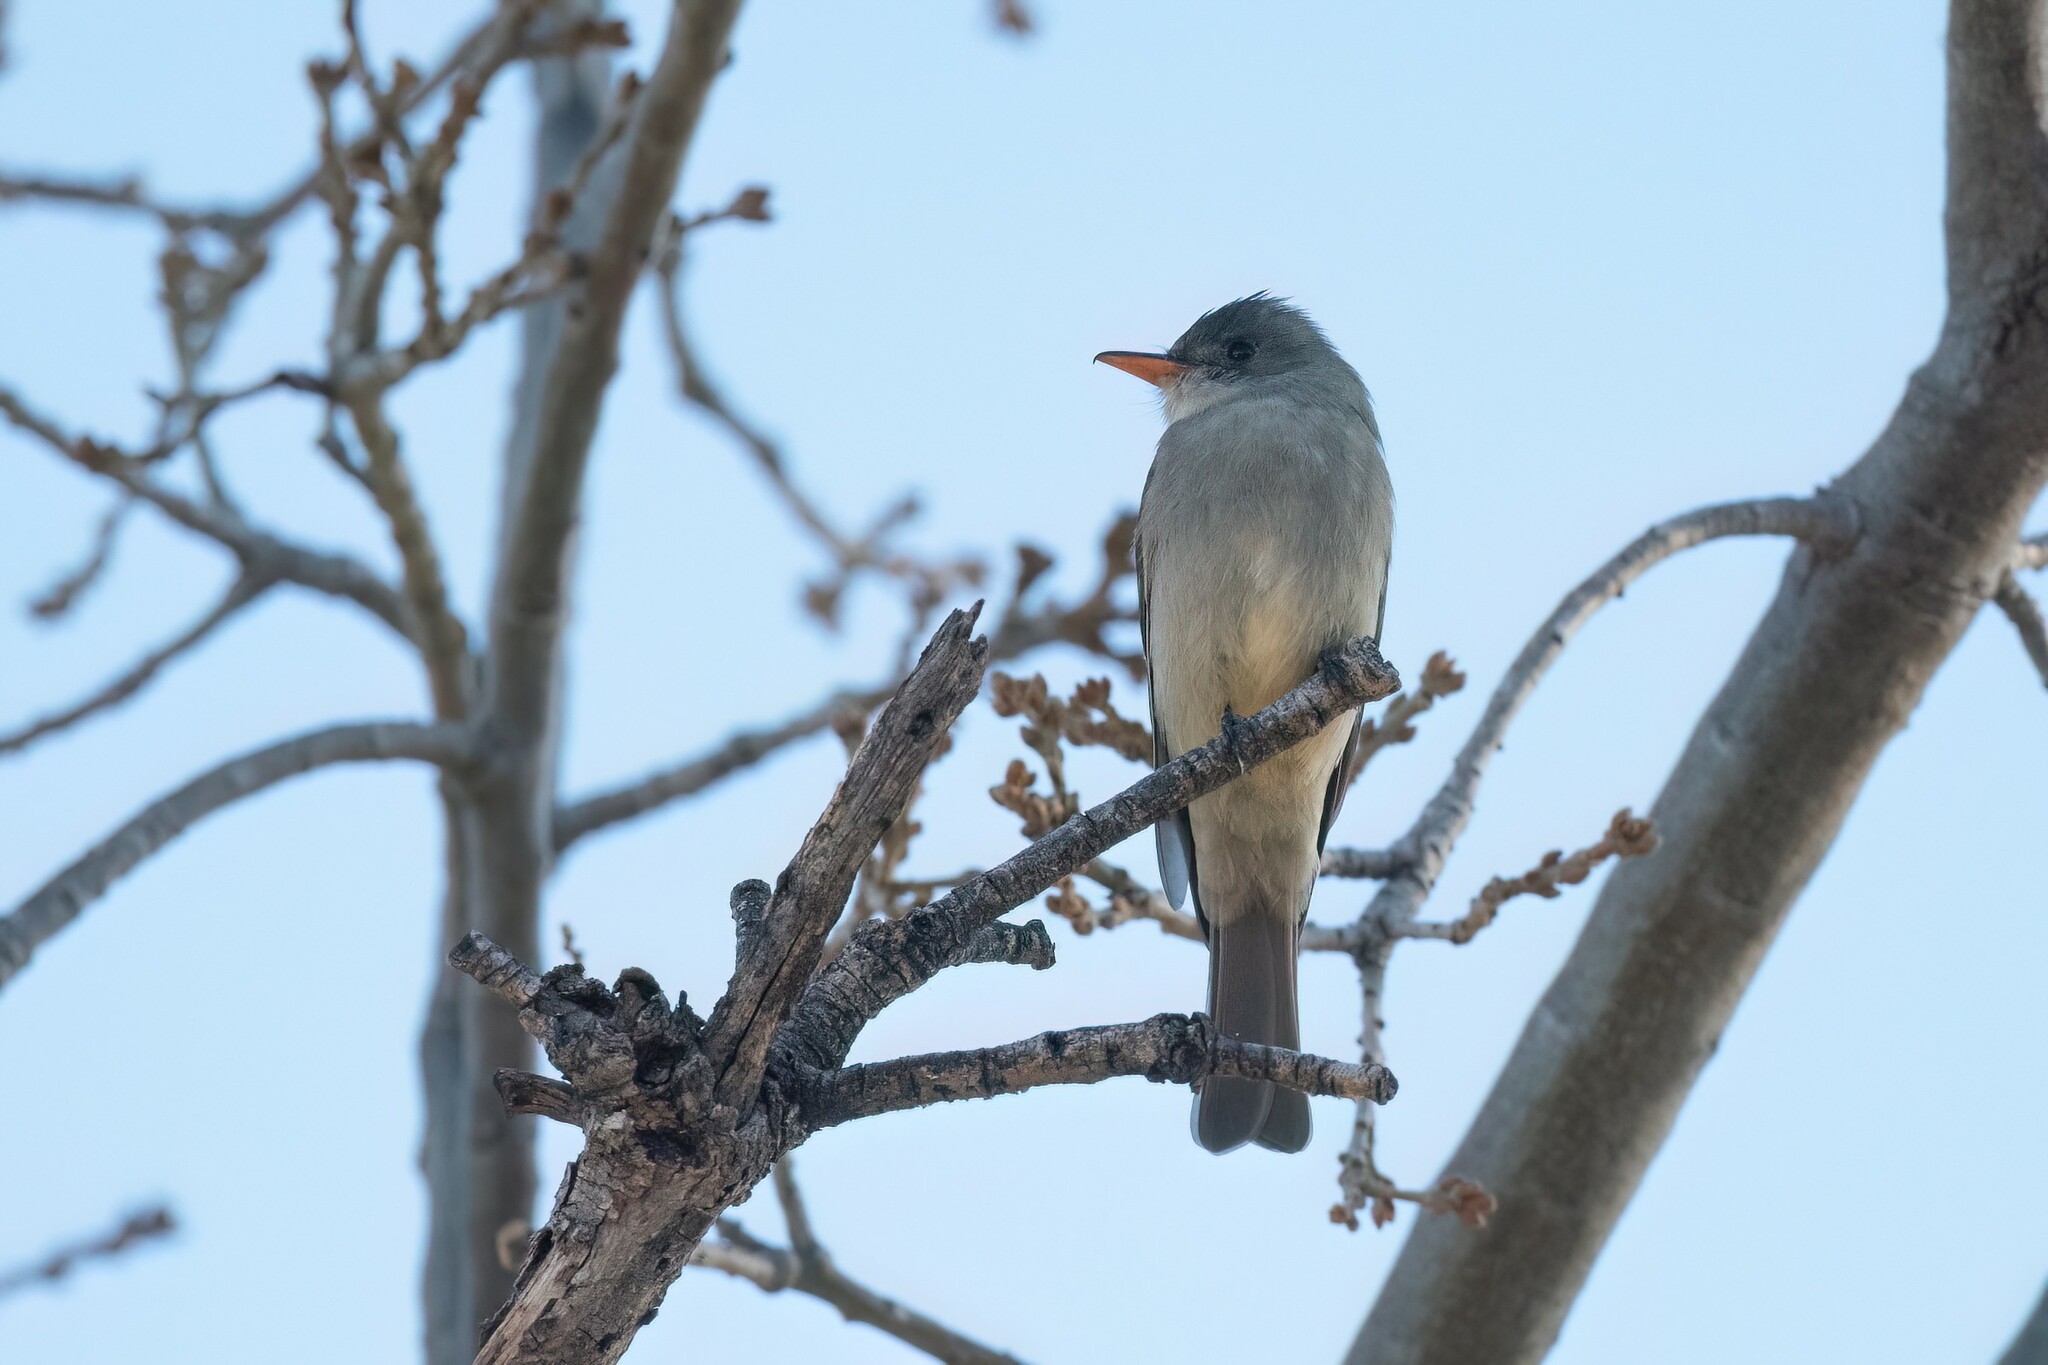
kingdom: Animalia
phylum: Chordata
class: Aves
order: Passeriformes
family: Tyrannidae
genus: Contopus
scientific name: Contopus pertinax
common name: Greater pewee
